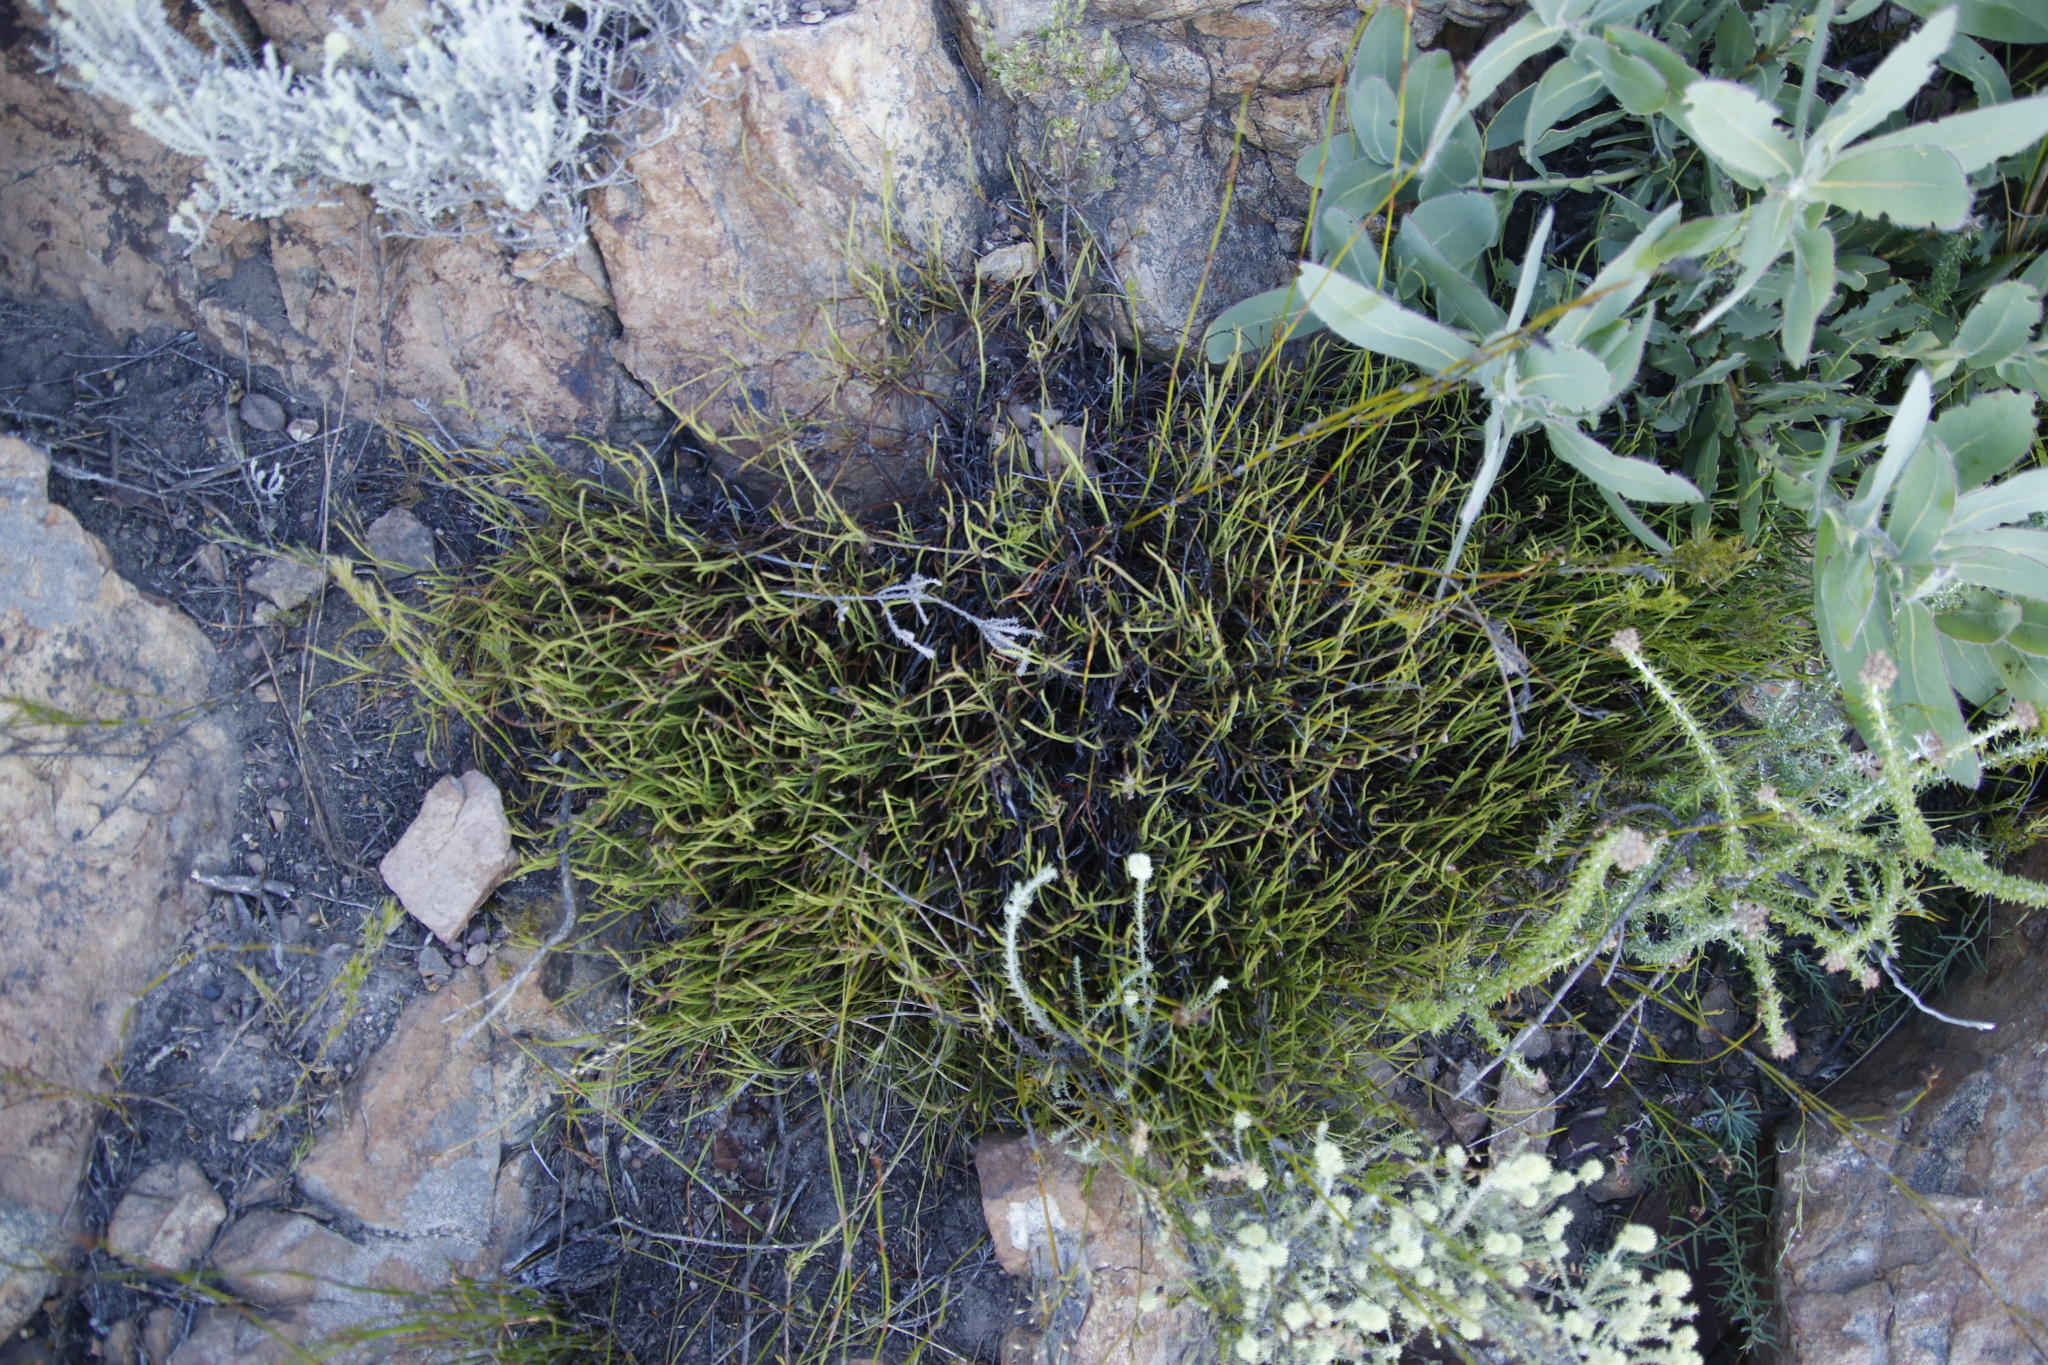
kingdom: Plantae
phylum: Tracheophyta
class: Magnoliopsida
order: Apiales
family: Apiaceae
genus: Centella
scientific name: Centella restioides
